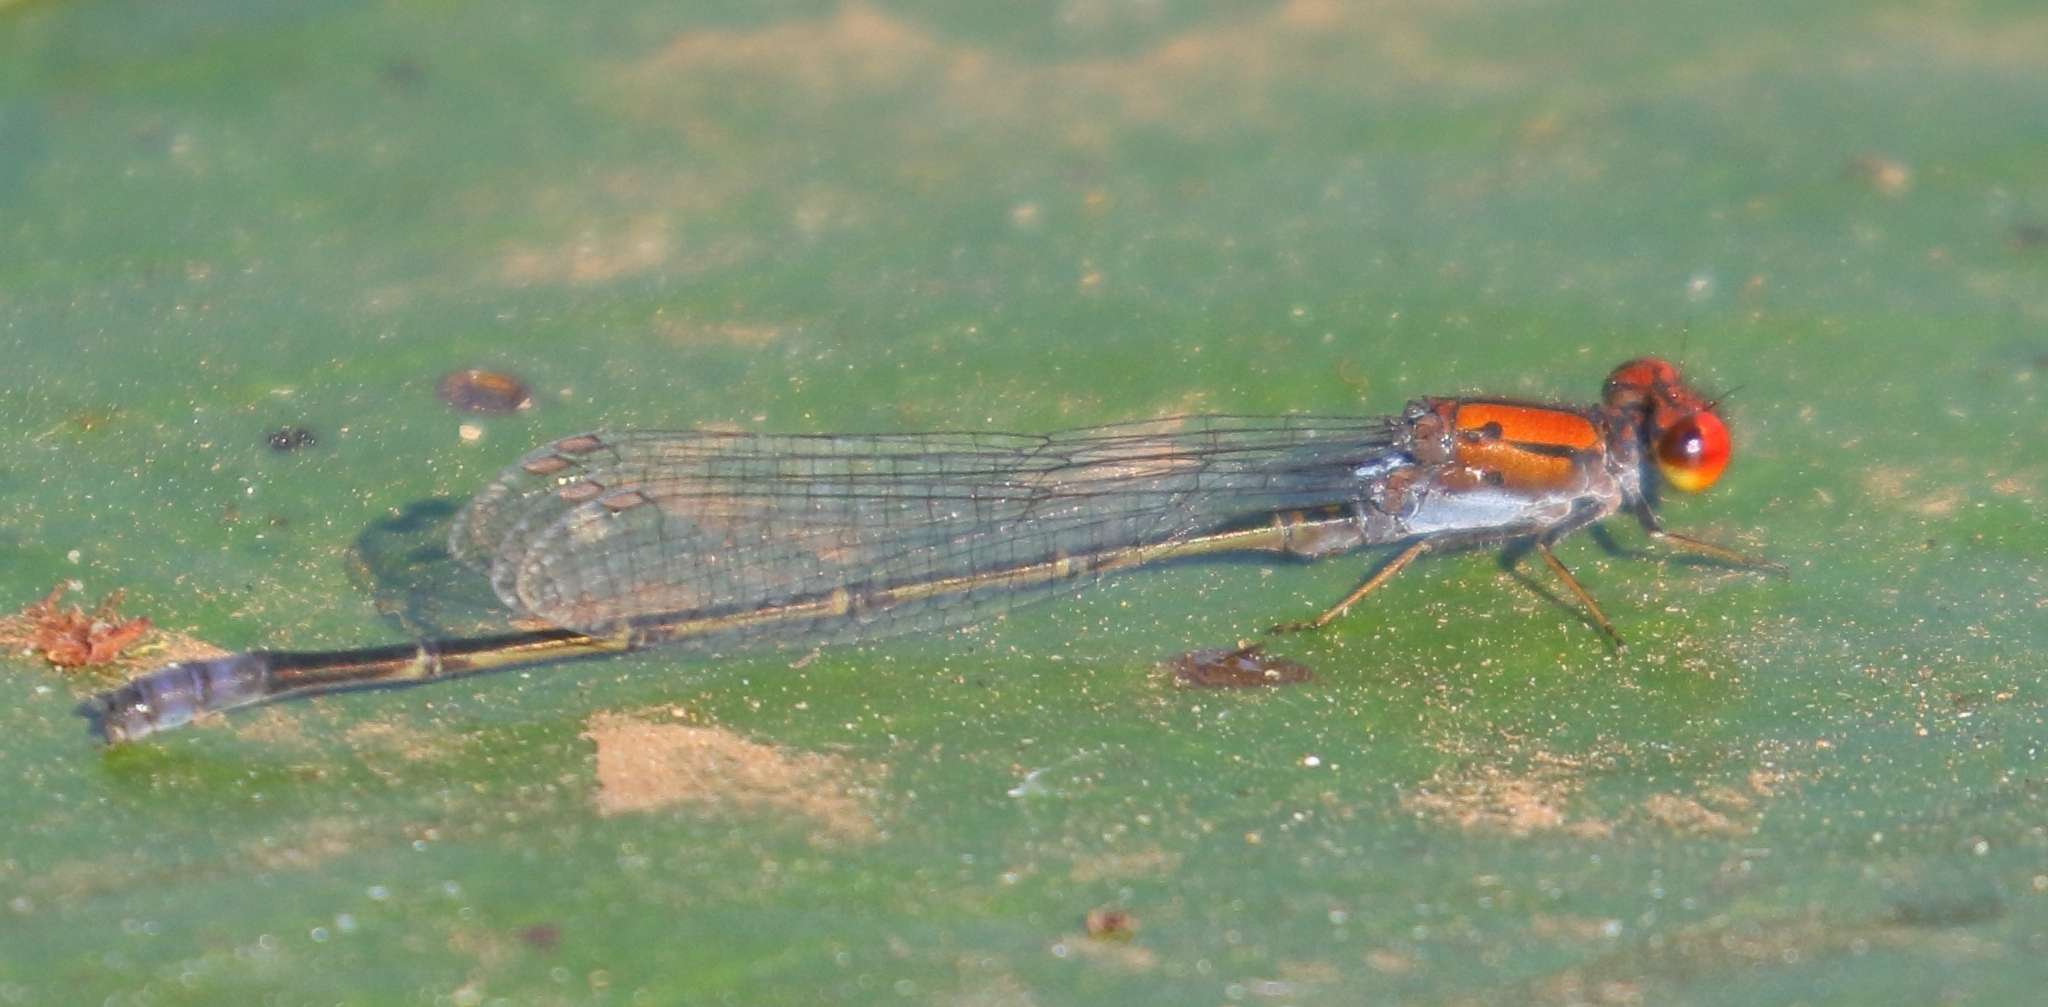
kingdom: Animalia
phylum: Arthropoda
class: Insecta
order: Odonata
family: Coenagrionidae
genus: Pseudagrion
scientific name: Pseudagrion massaicum
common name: Masai sprite
